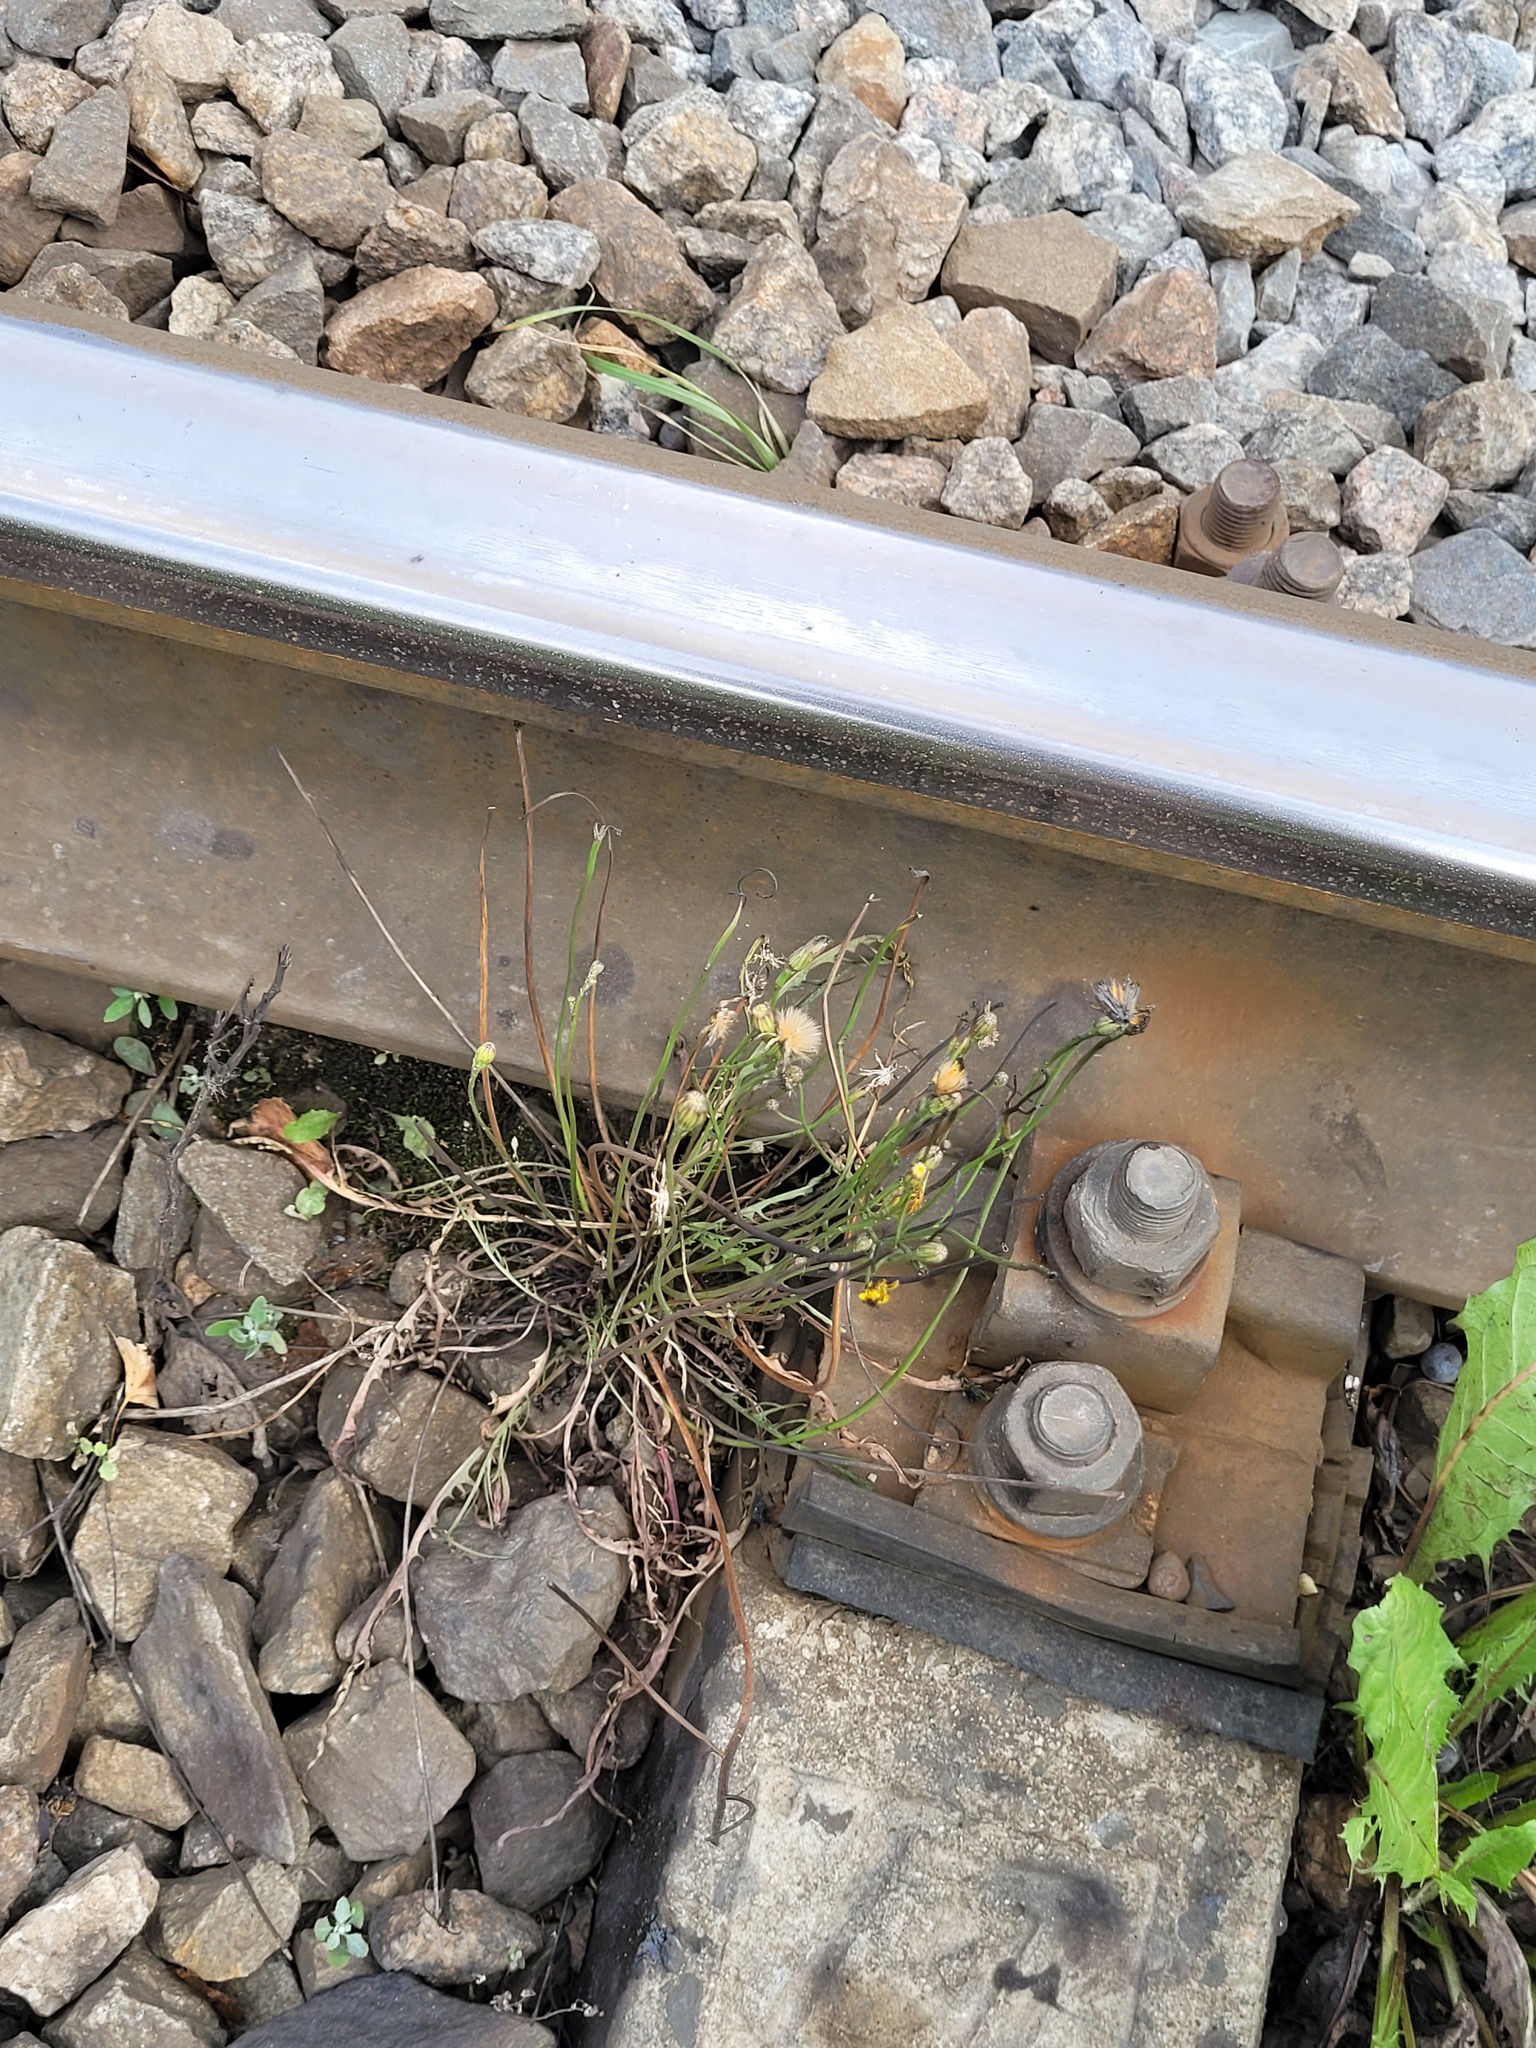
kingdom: Plantae
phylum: Tracheophyta
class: Magnoliopsida
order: Asterales
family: Asteraceae
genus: Scorzoneroides
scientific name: Scorzoneroides autumnalis
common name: Autumn hawkbit
